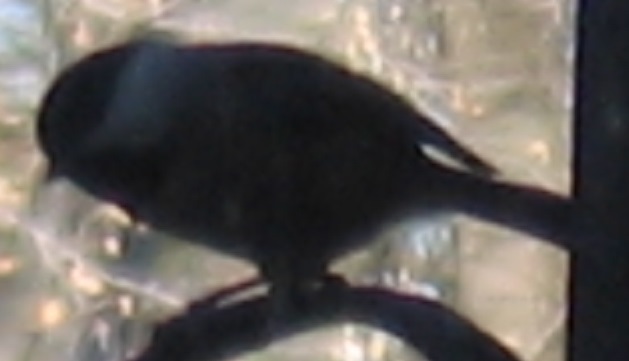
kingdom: Animalia
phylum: Chordata
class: Aves
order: Passeriformes
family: Paridae
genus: Poecile
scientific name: Poecile carolinensis
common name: Carolina chickadee
